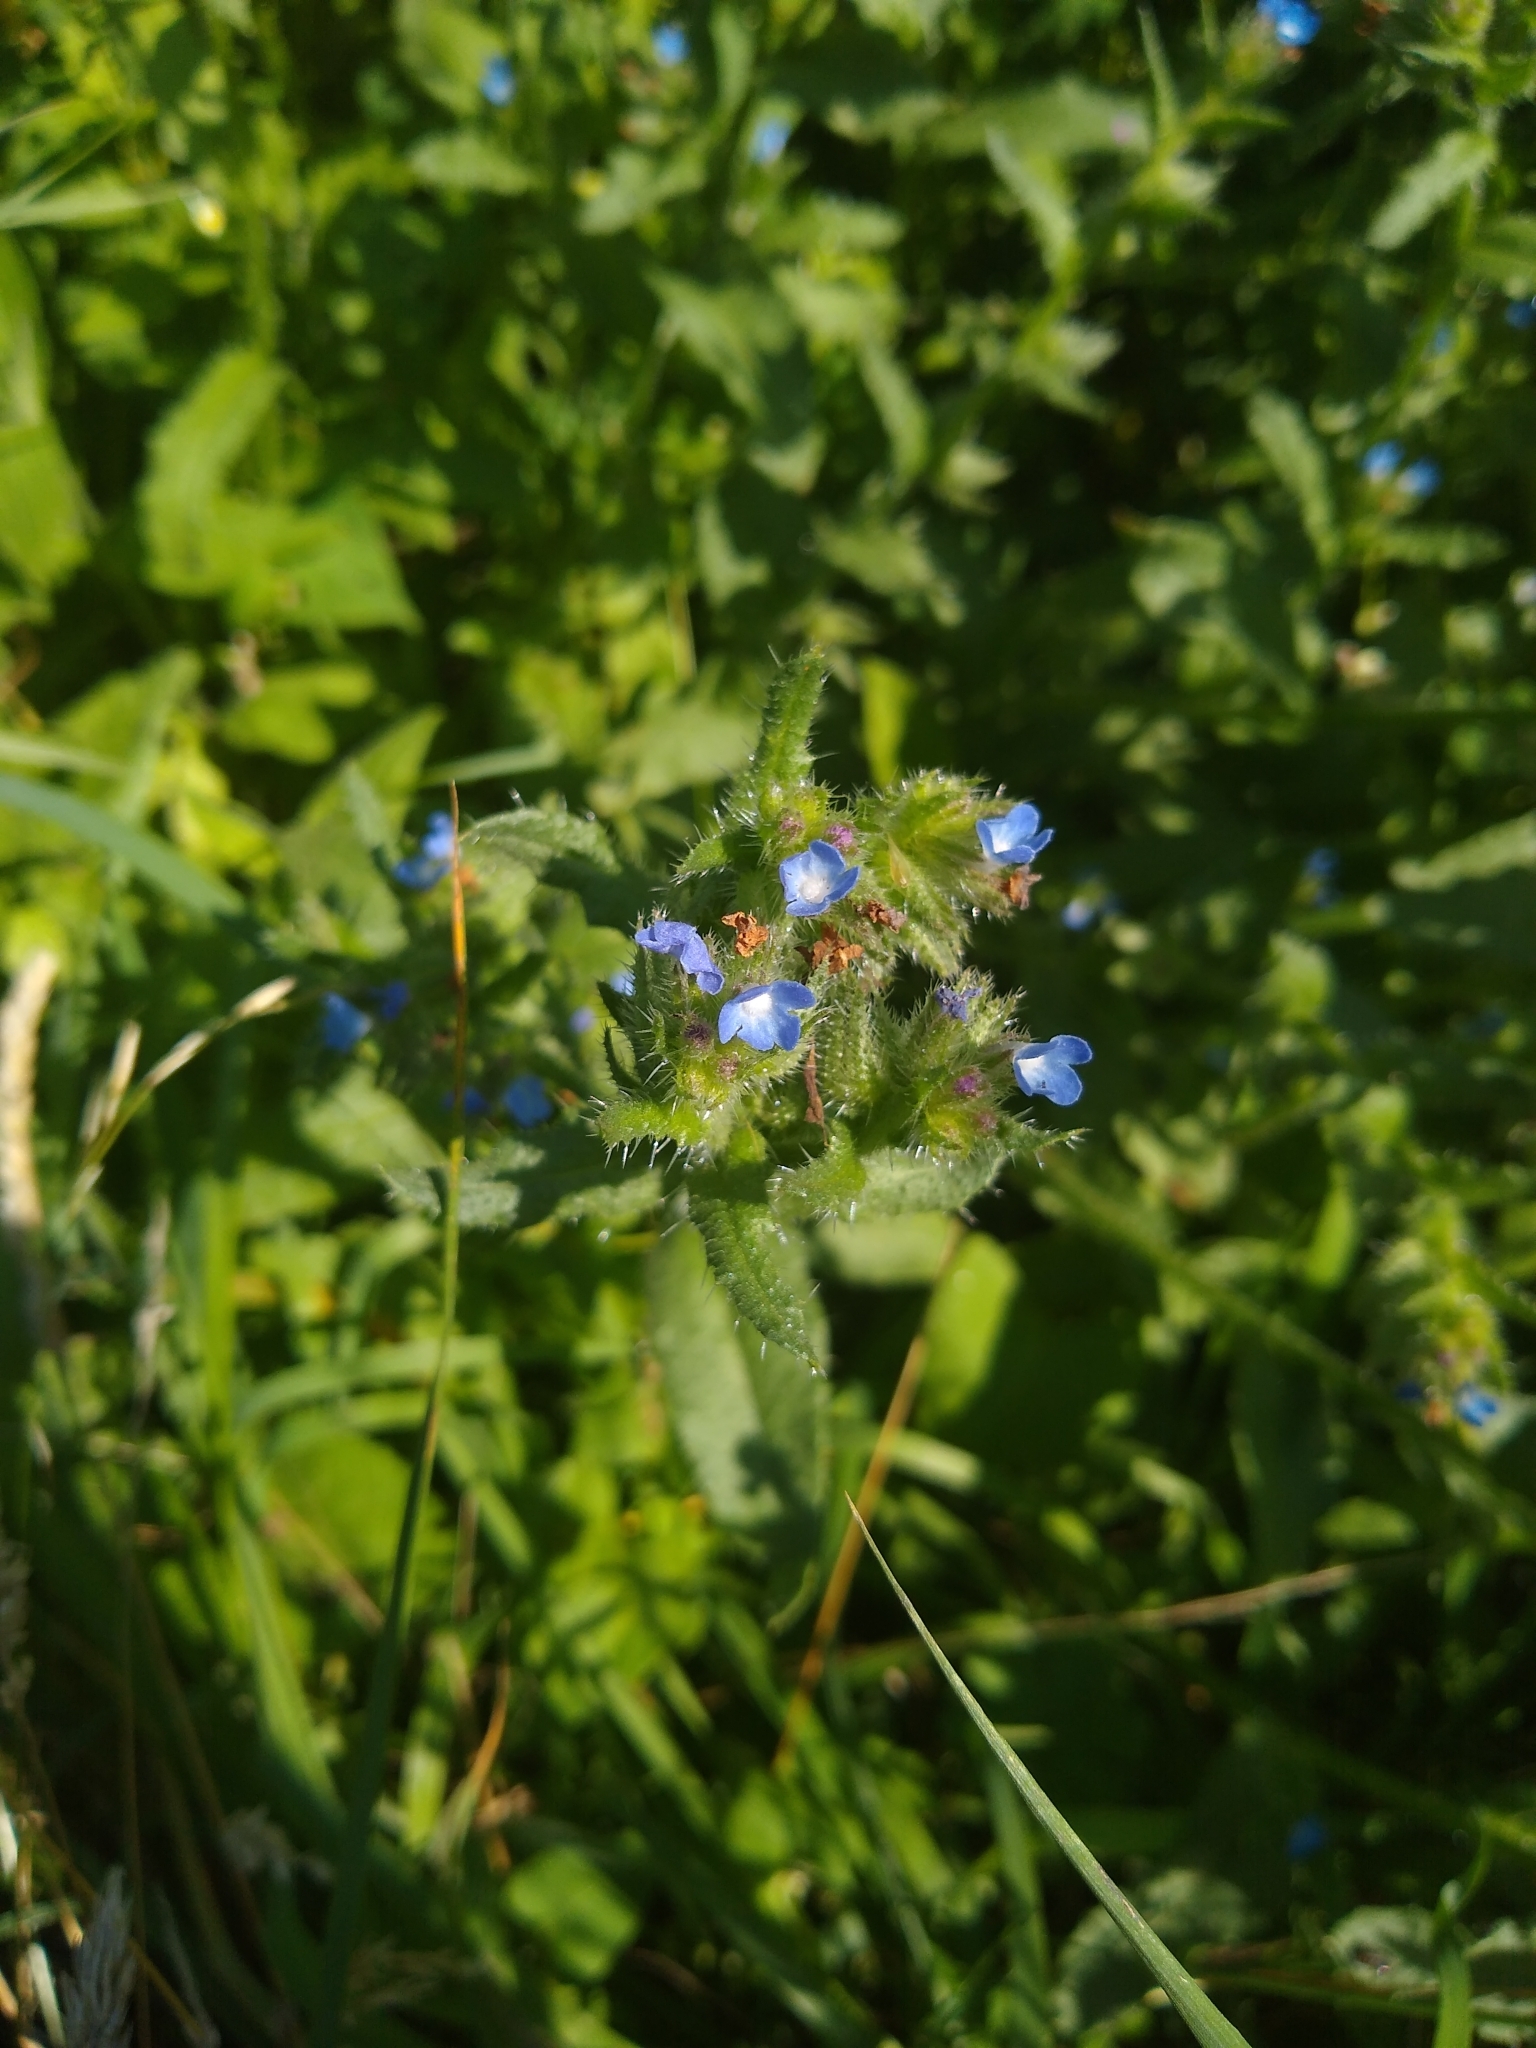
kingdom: Plantae
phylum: Tracheophyta
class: Magnoliopsida
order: Boraginales
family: Boraginaceae
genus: Lycopsis
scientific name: Lycopsis arvensis
